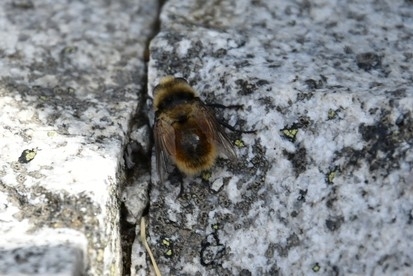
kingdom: Animalia
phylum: Arthropoda
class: Insecta
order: Diptera
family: Oestridae
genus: Cephenemyia
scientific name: Cephenemyia stimulator
